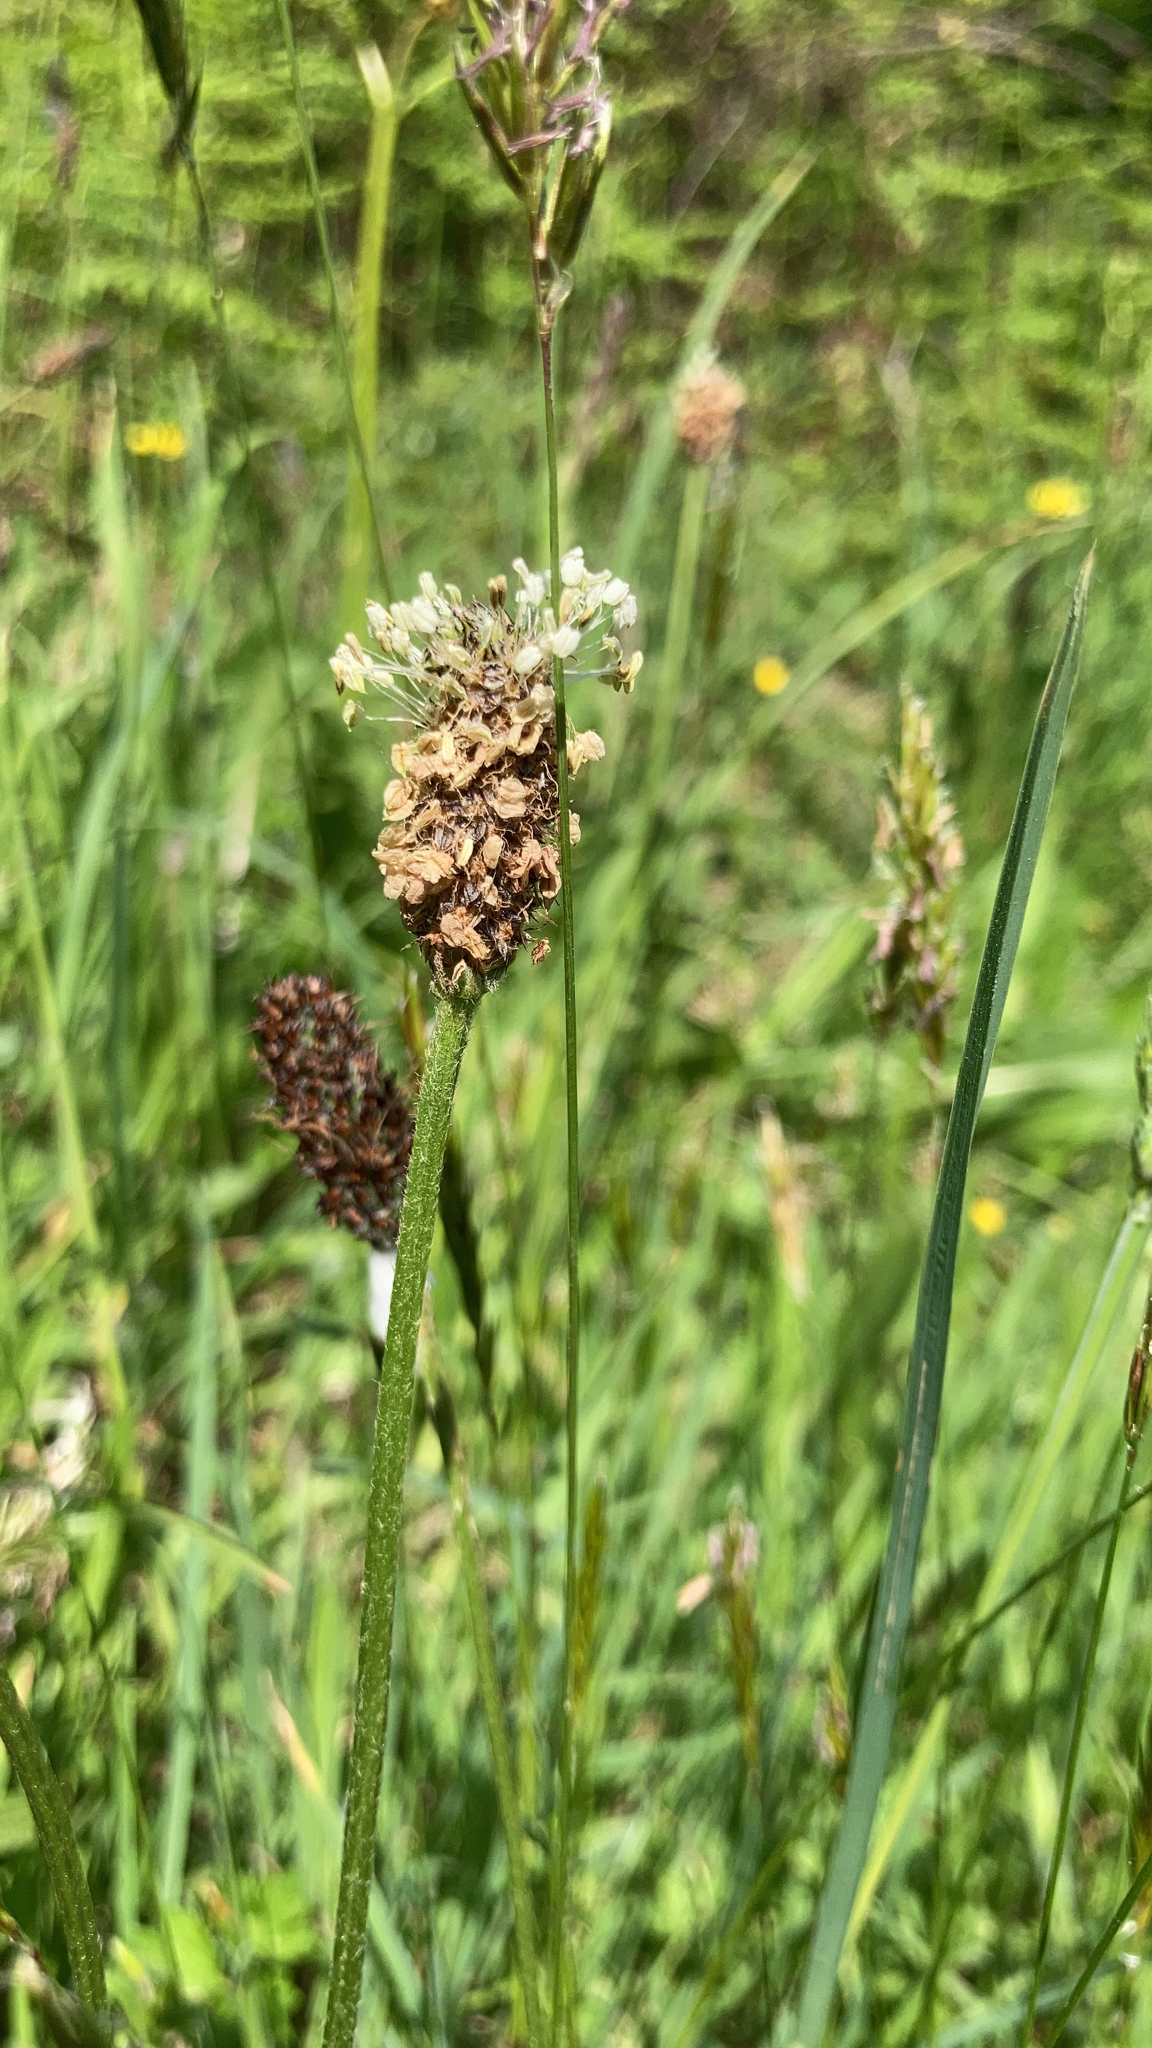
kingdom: Plantae
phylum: Tracheophyta
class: Magnoliopsida
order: Lamiales
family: Plantaginaceae
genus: Plantago
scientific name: Plantago lanceolata
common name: Ribwort plantain
